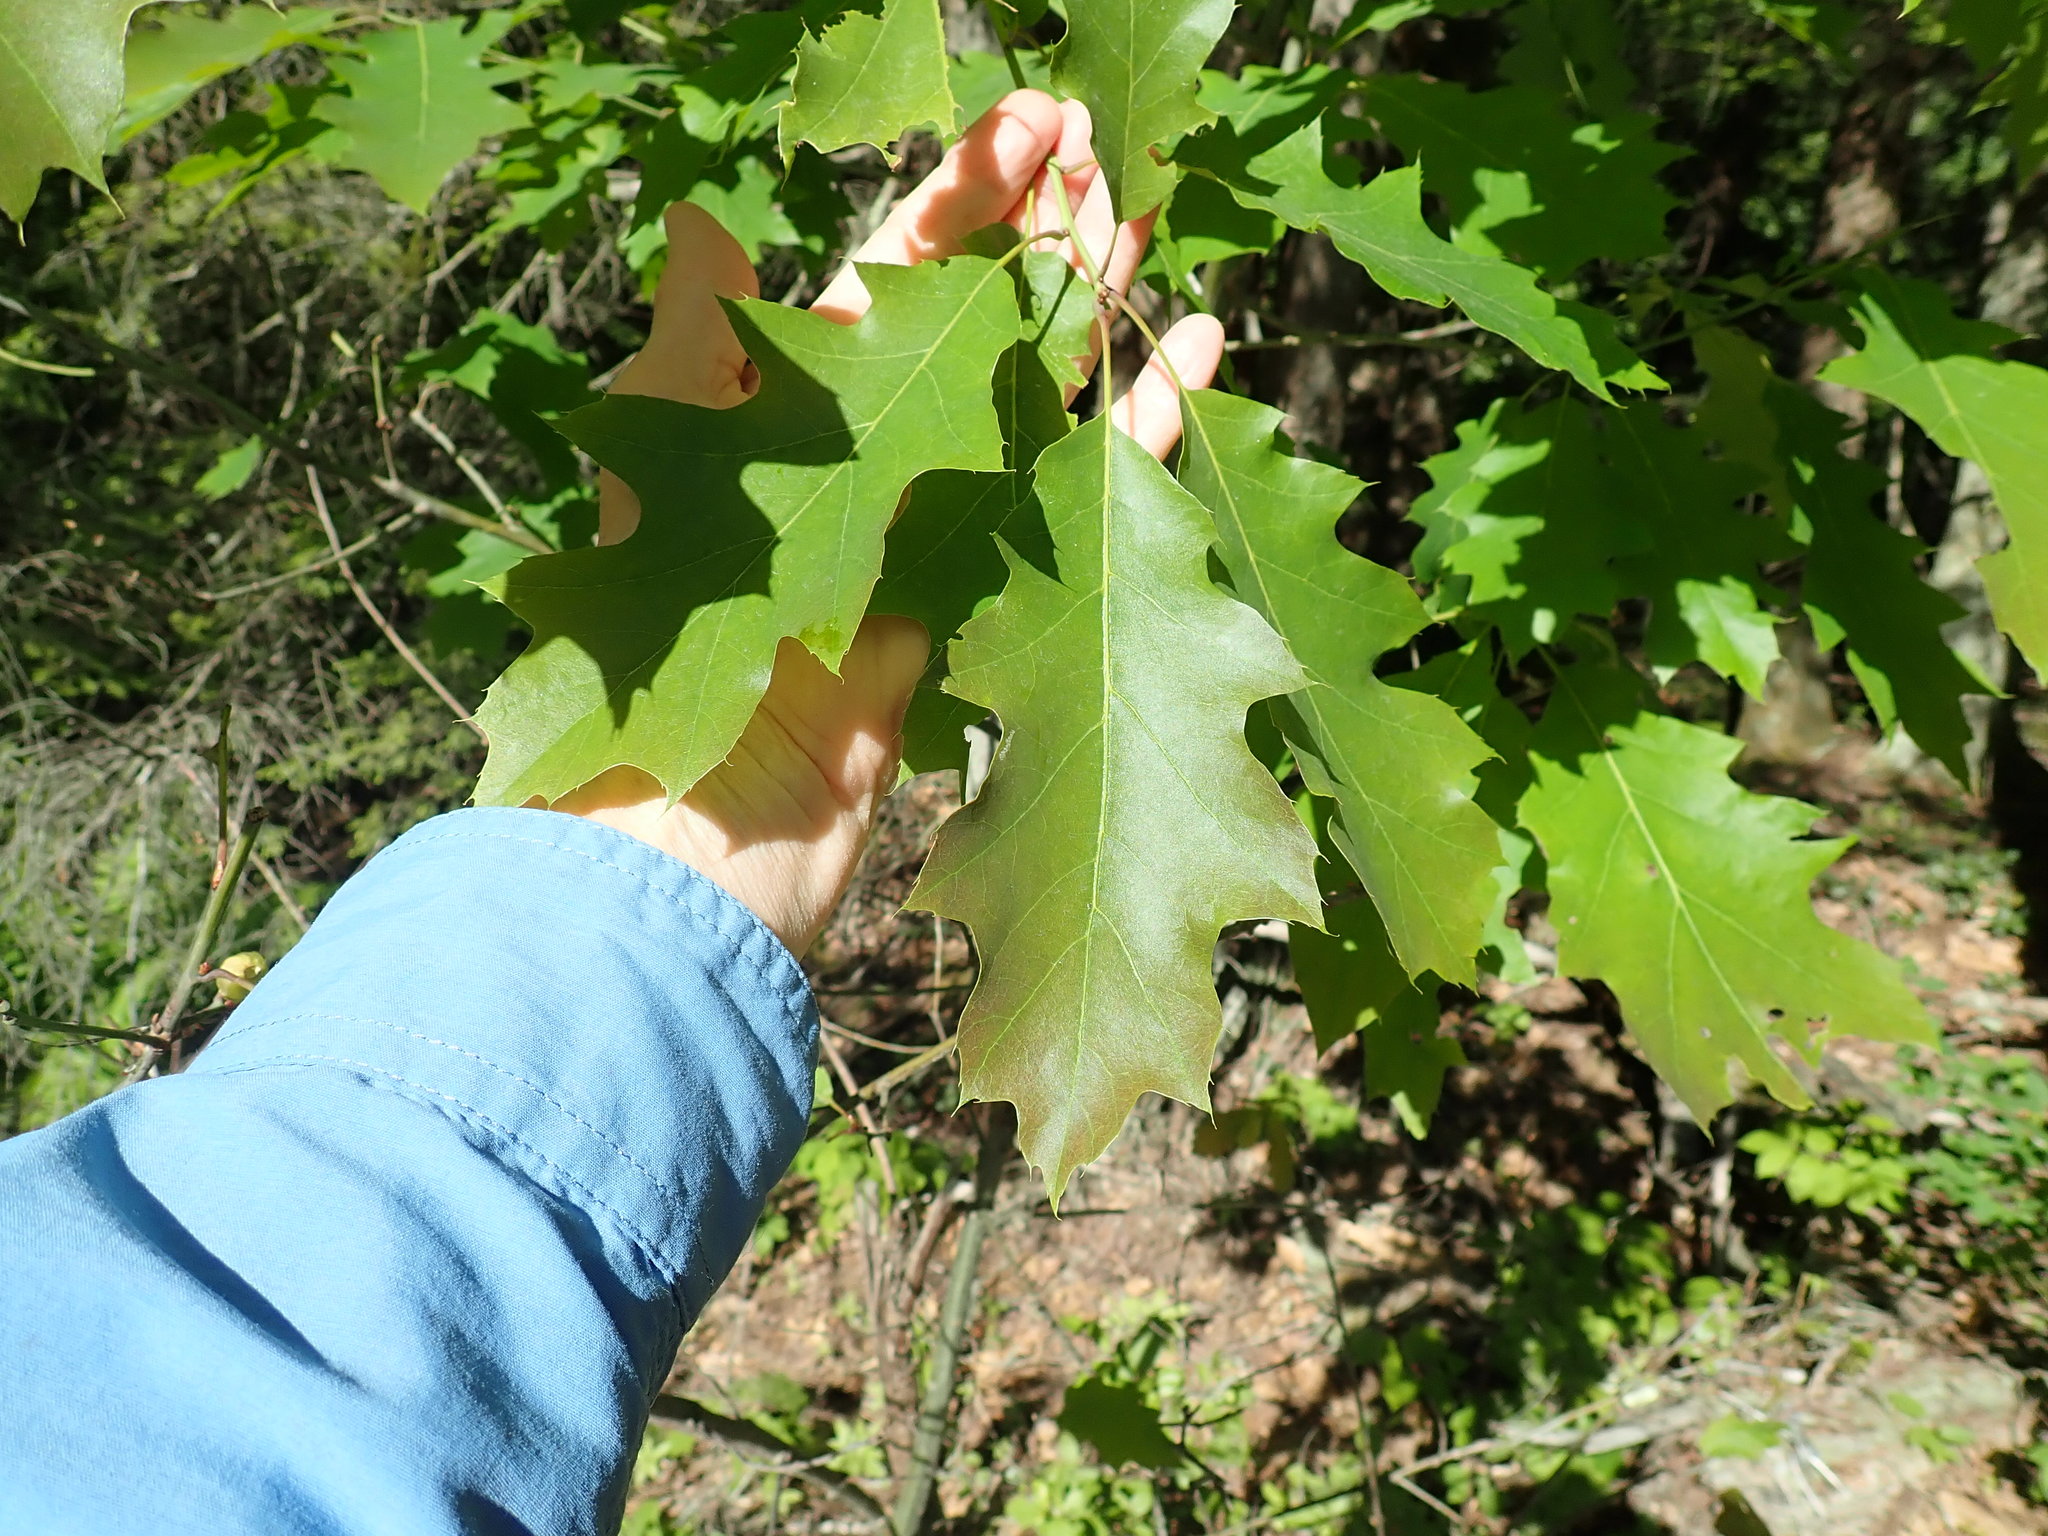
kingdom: Plantae
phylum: Tracheophyta
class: Magnoliopsida
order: Fagales
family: Fagaceae
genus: Quercus
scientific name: Quercus rubra
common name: Red oak
